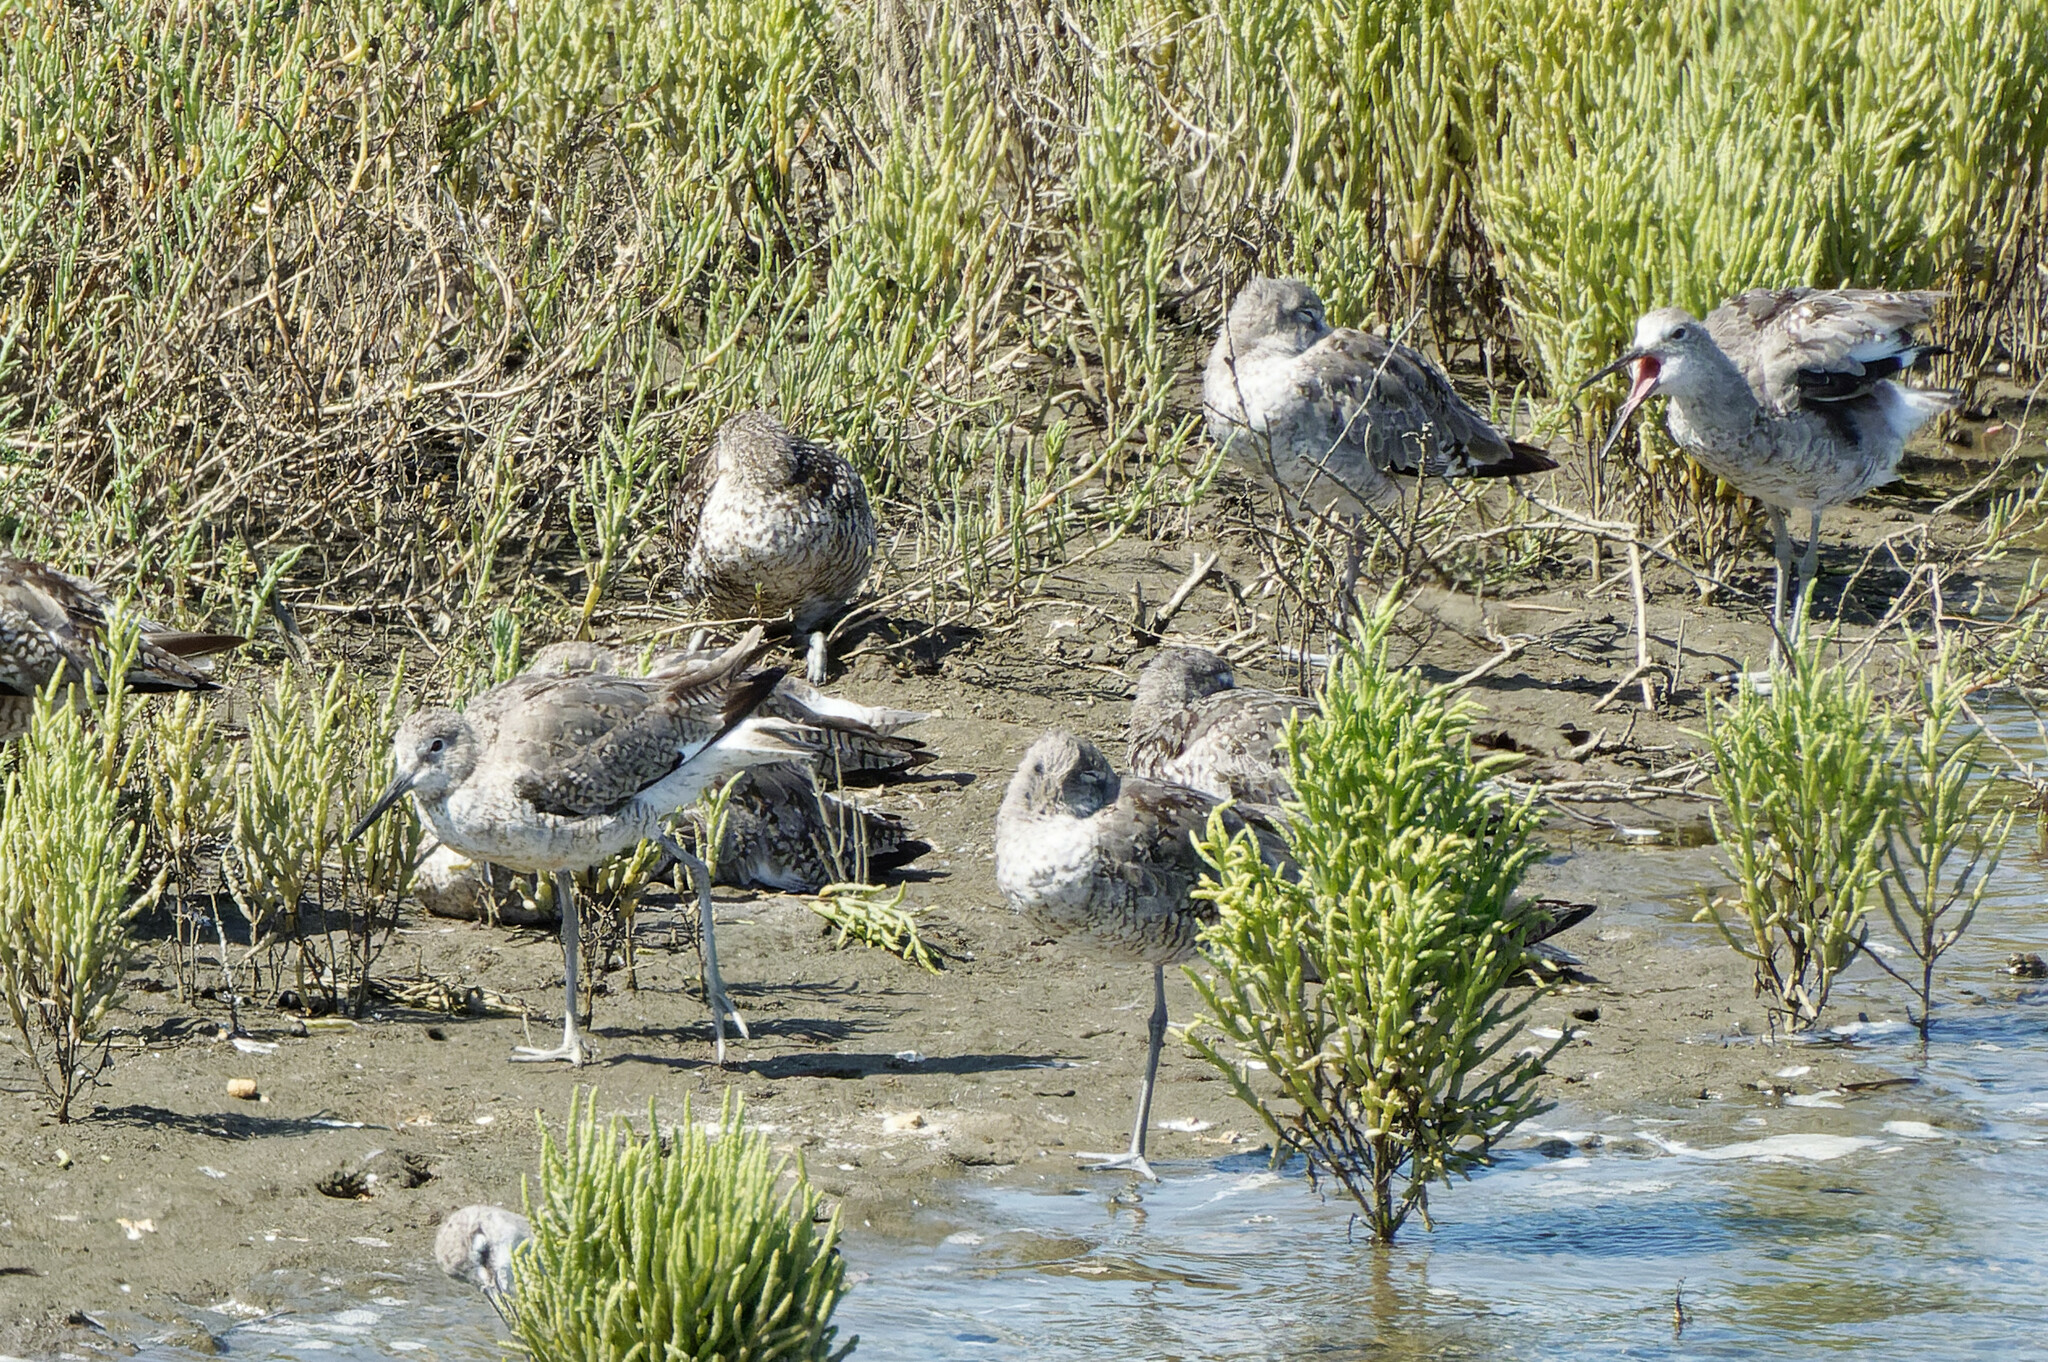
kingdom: Animalia
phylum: Chordata
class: Aves
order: Charadriiformes
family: Scolopacidae
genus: Tringa
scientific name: Tringa semipalmata
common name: Willet
